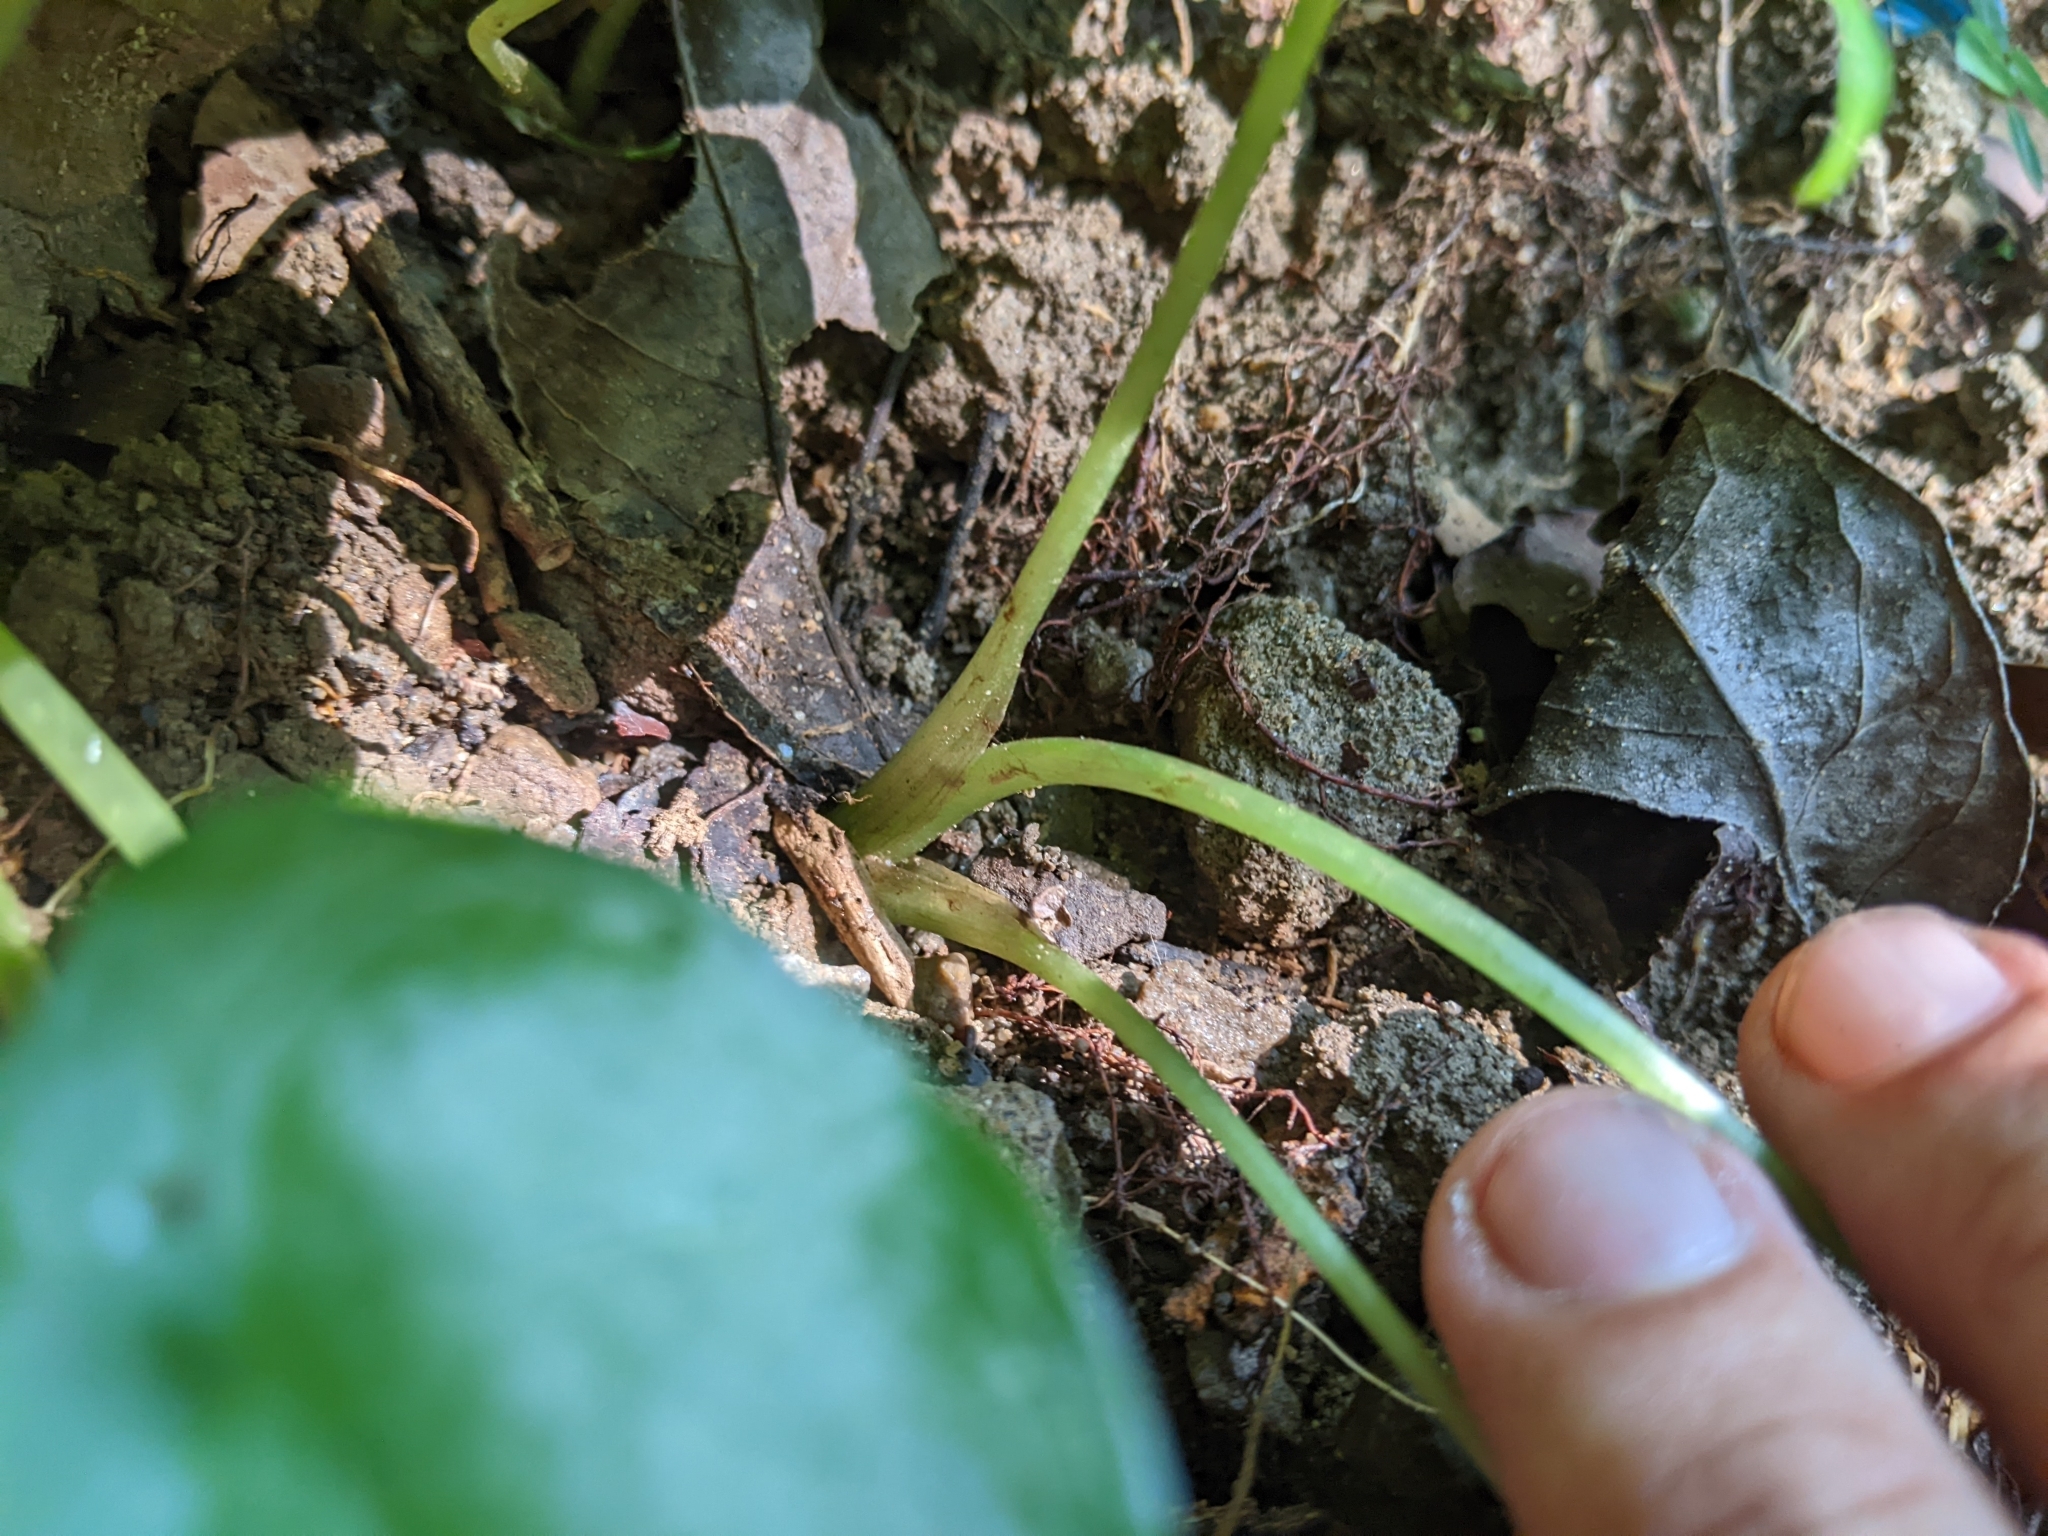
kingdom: Plantae
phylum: Tracheophyta
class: Liliopsida
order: Alismatales
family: Araceae
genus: Alocasia
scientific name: Alocasia odora
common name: Asian taro
